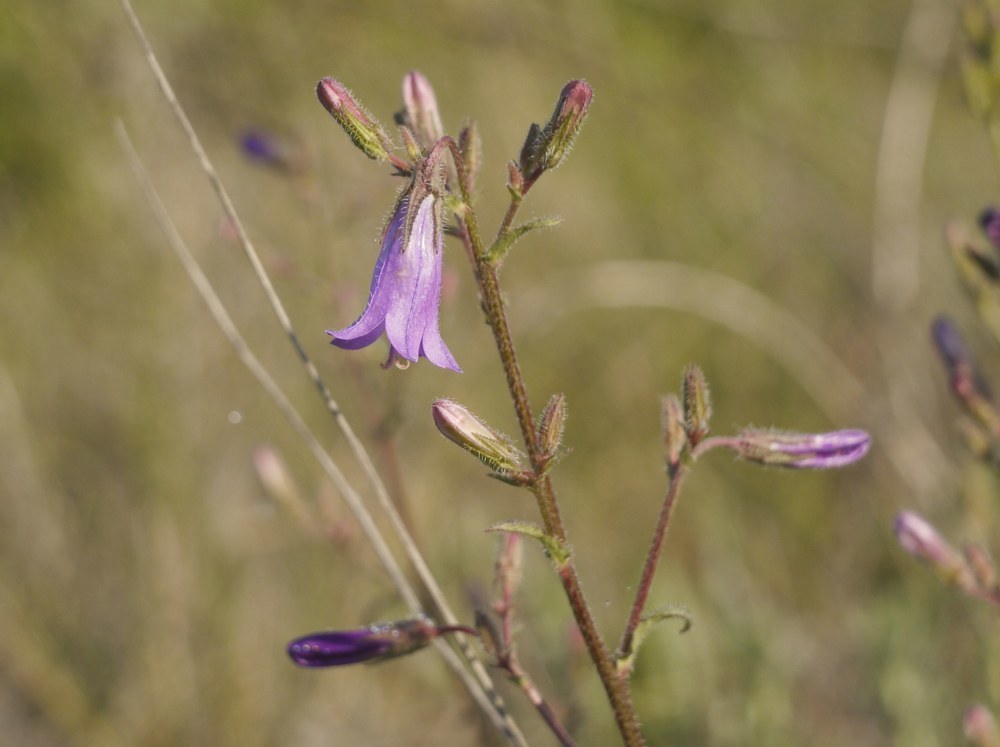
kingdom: Plantae
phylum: Tracheophyta
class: Magnoliopsida
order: Asterales
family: Campanulaceae
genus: Campanula
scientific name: Campanula sibirica
